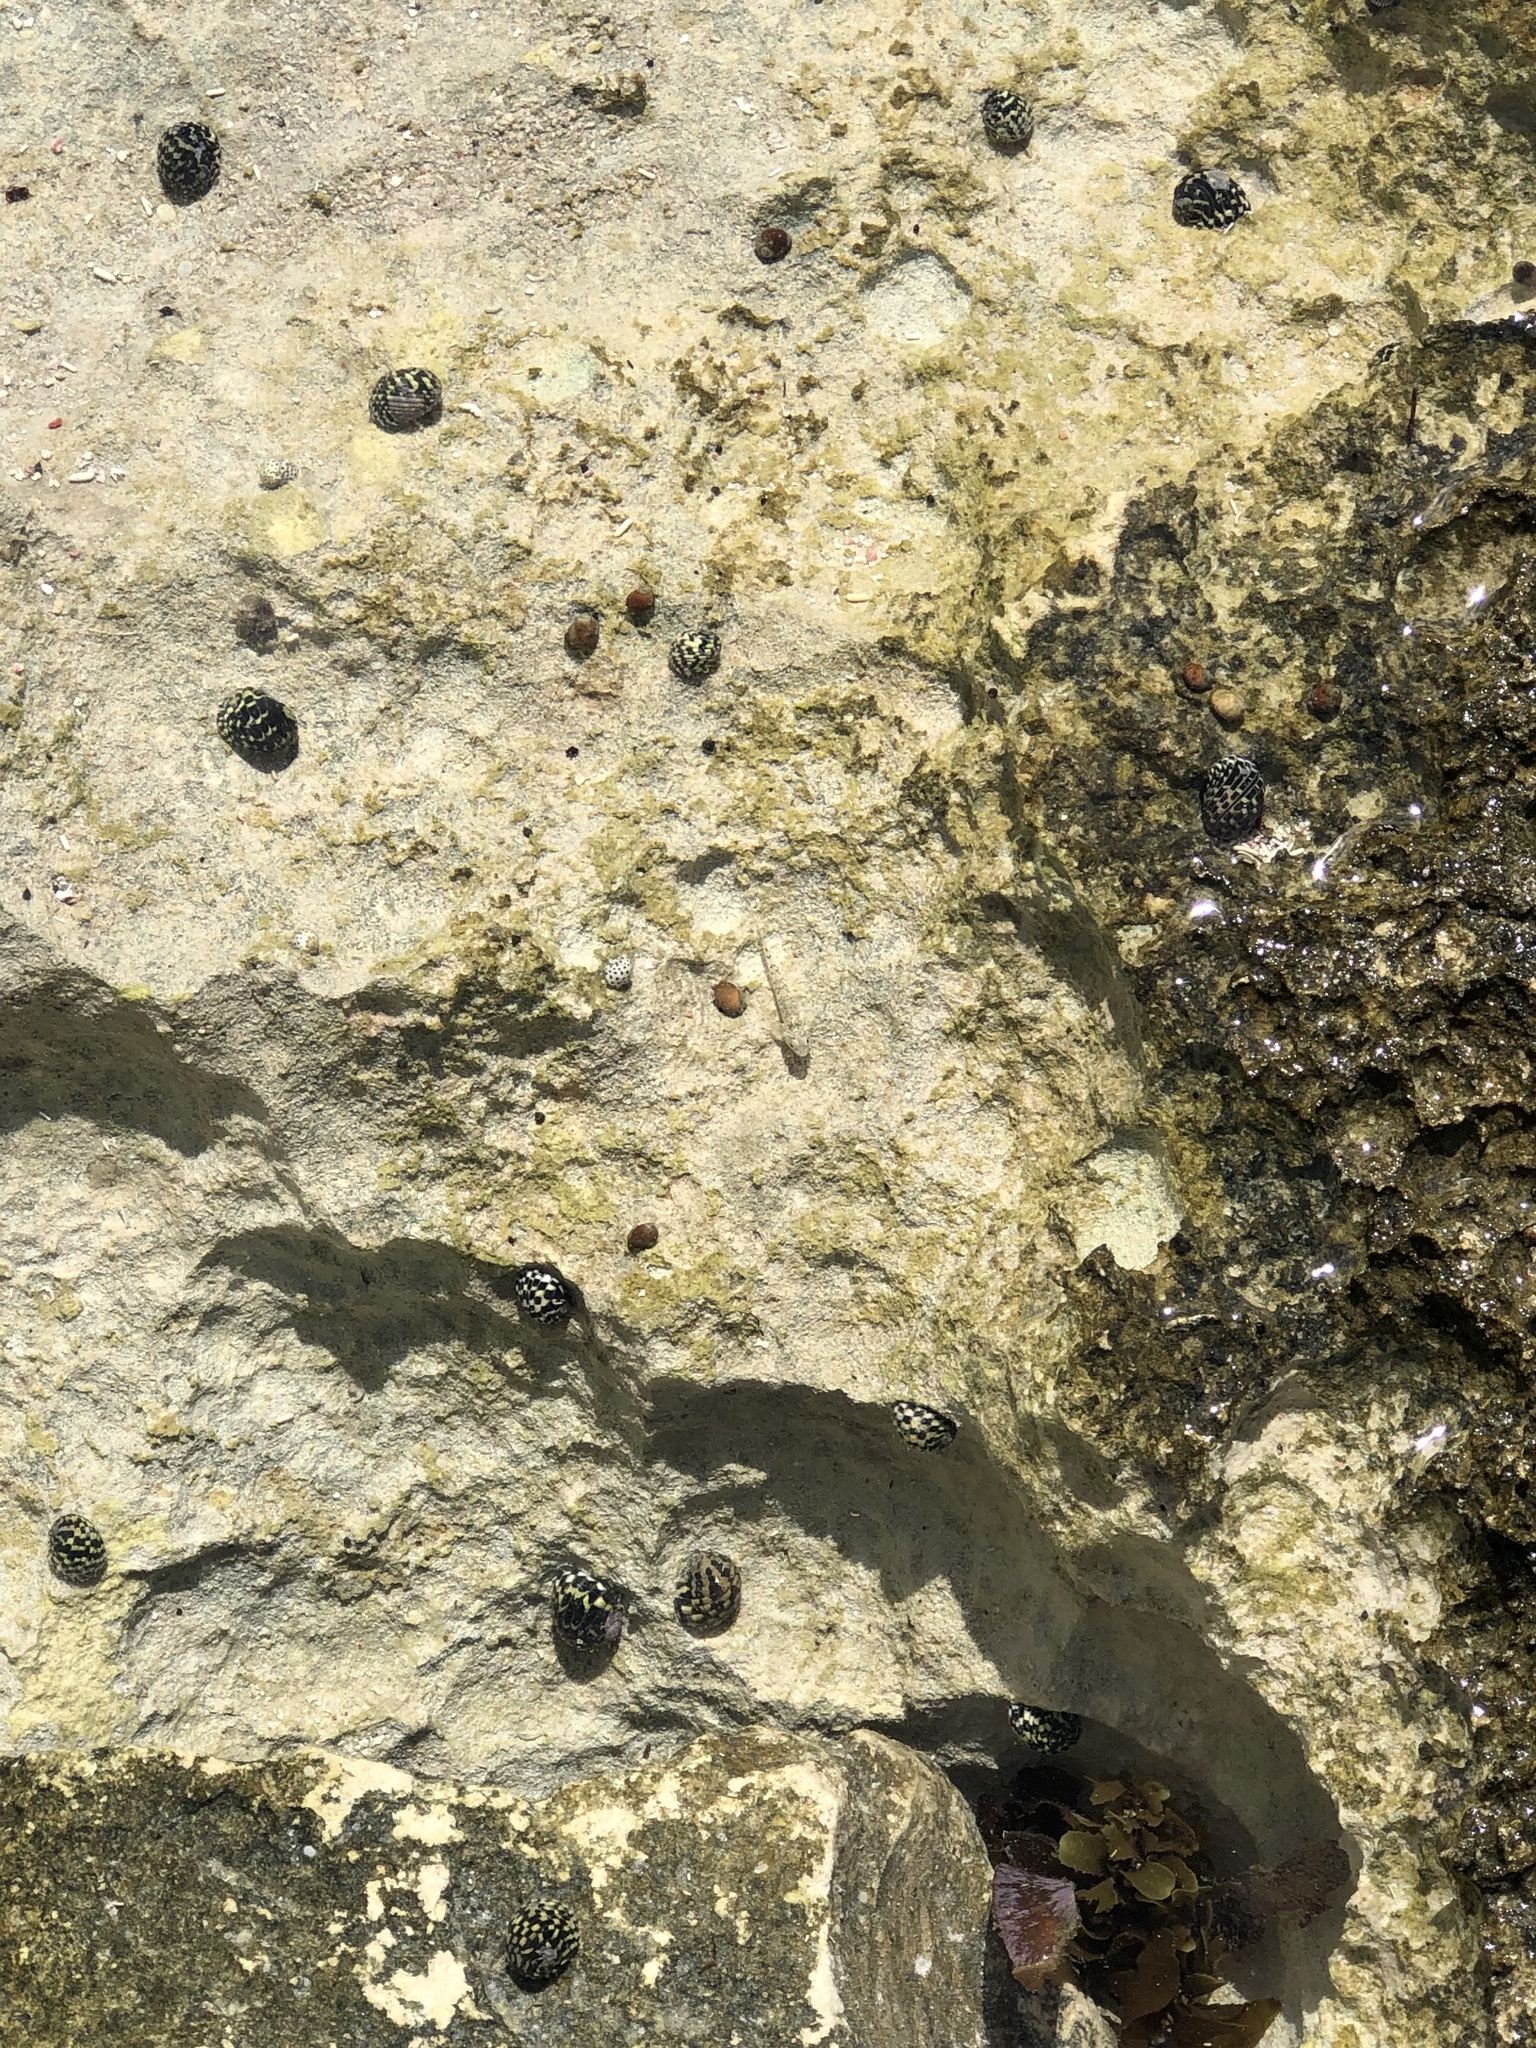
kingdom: Animalia
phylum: Mollusca
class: Gastropoda
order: Cycloneritida
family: Neritidae
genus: Nerita
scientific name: Nerita tessellata
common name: Checkered nerite
